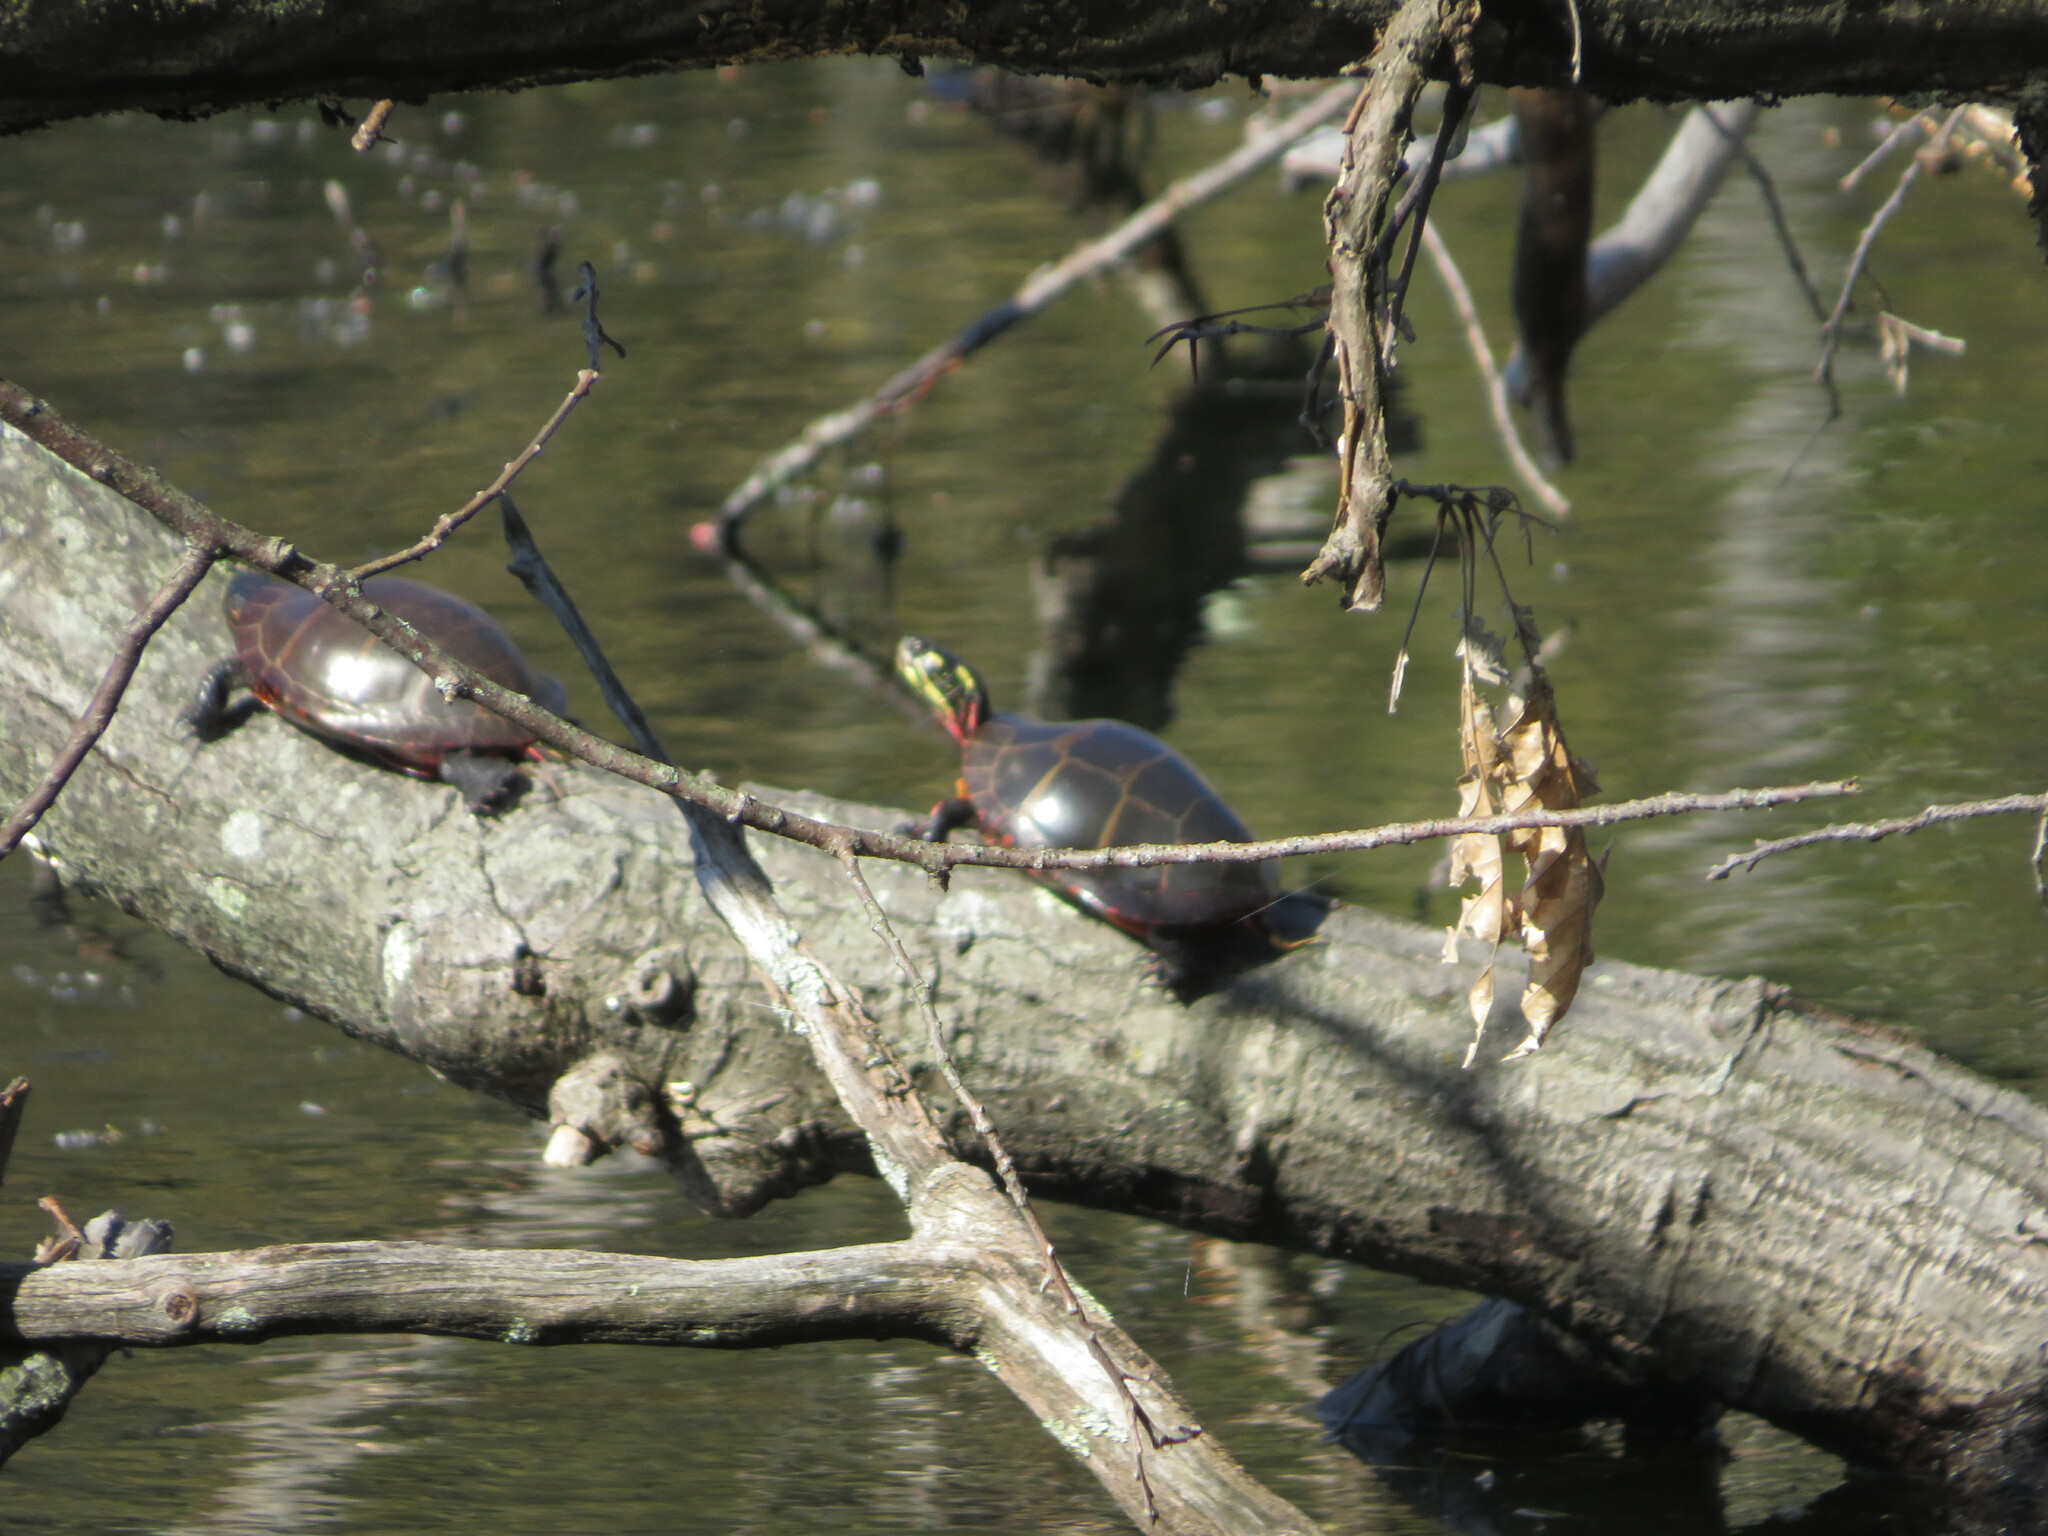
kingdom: Animalia
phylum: Chordata
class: Testudines
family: Emydidae
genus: Chrysemys
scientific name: Chrysemys picta
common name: Painted turtle
